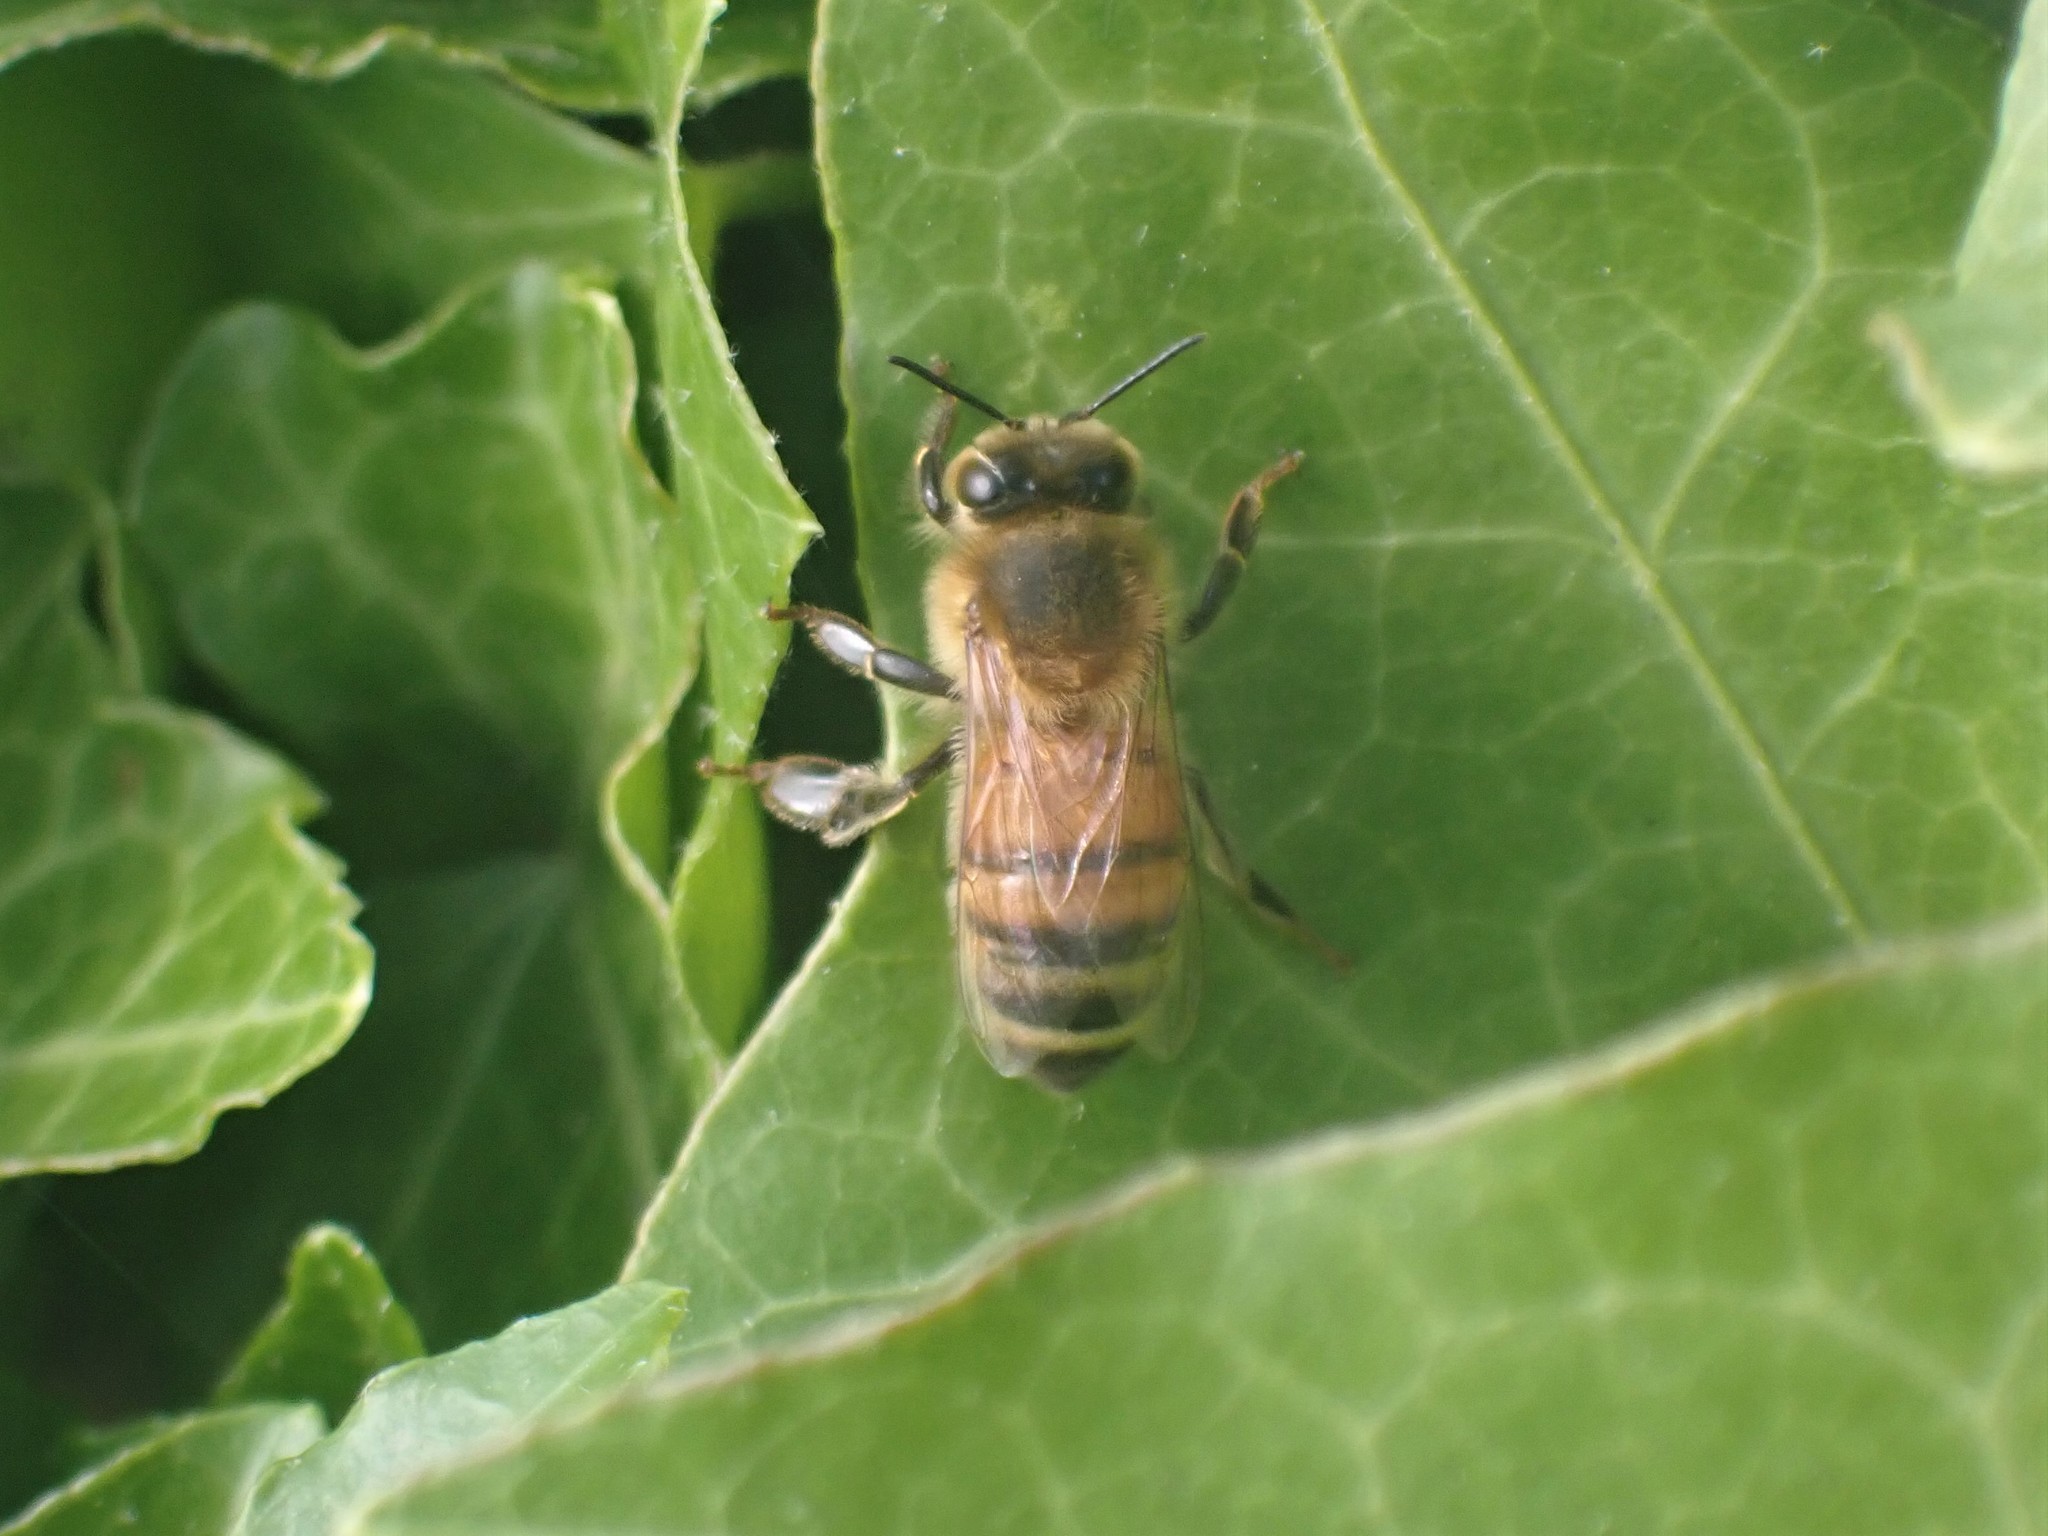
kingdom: Animalia
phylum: Arthropoda
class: Insecta
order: Hymenoptera
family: Apidae
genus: Apis
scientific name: Apis mellifera
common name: Honey bee
